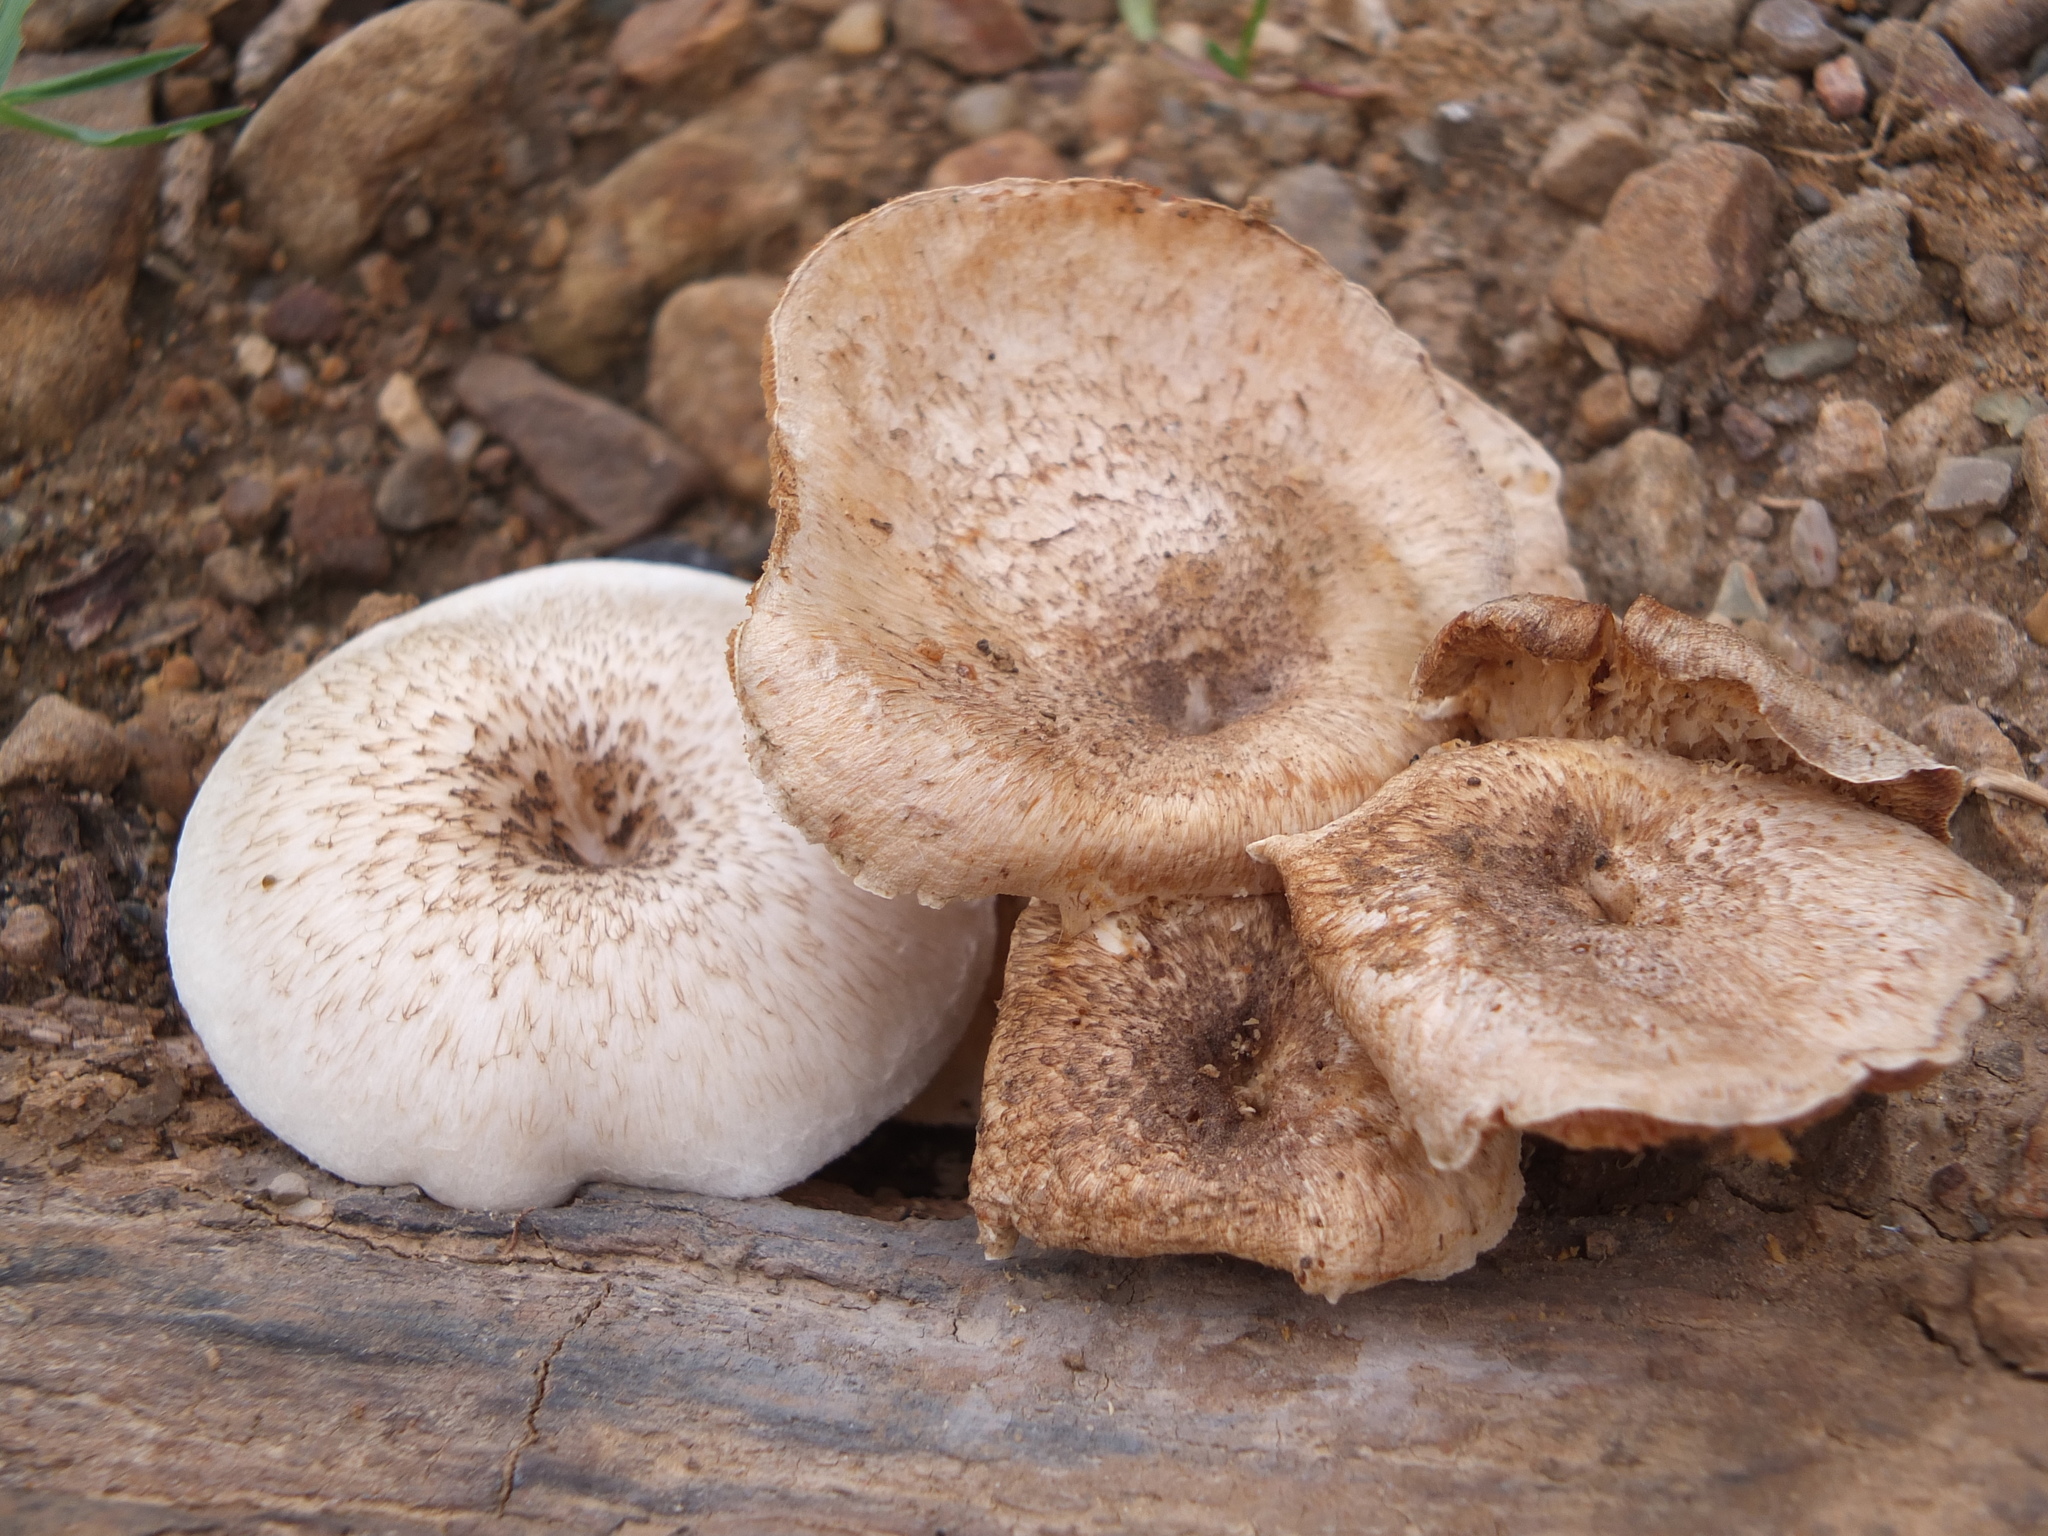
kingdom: Fungi
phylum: Basidiomycota
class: Agaricomycetes
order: Polyporales
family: Polyporaceae
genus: Lentinus
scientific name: Lentinus tigrinus
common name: Tiger sawgill
